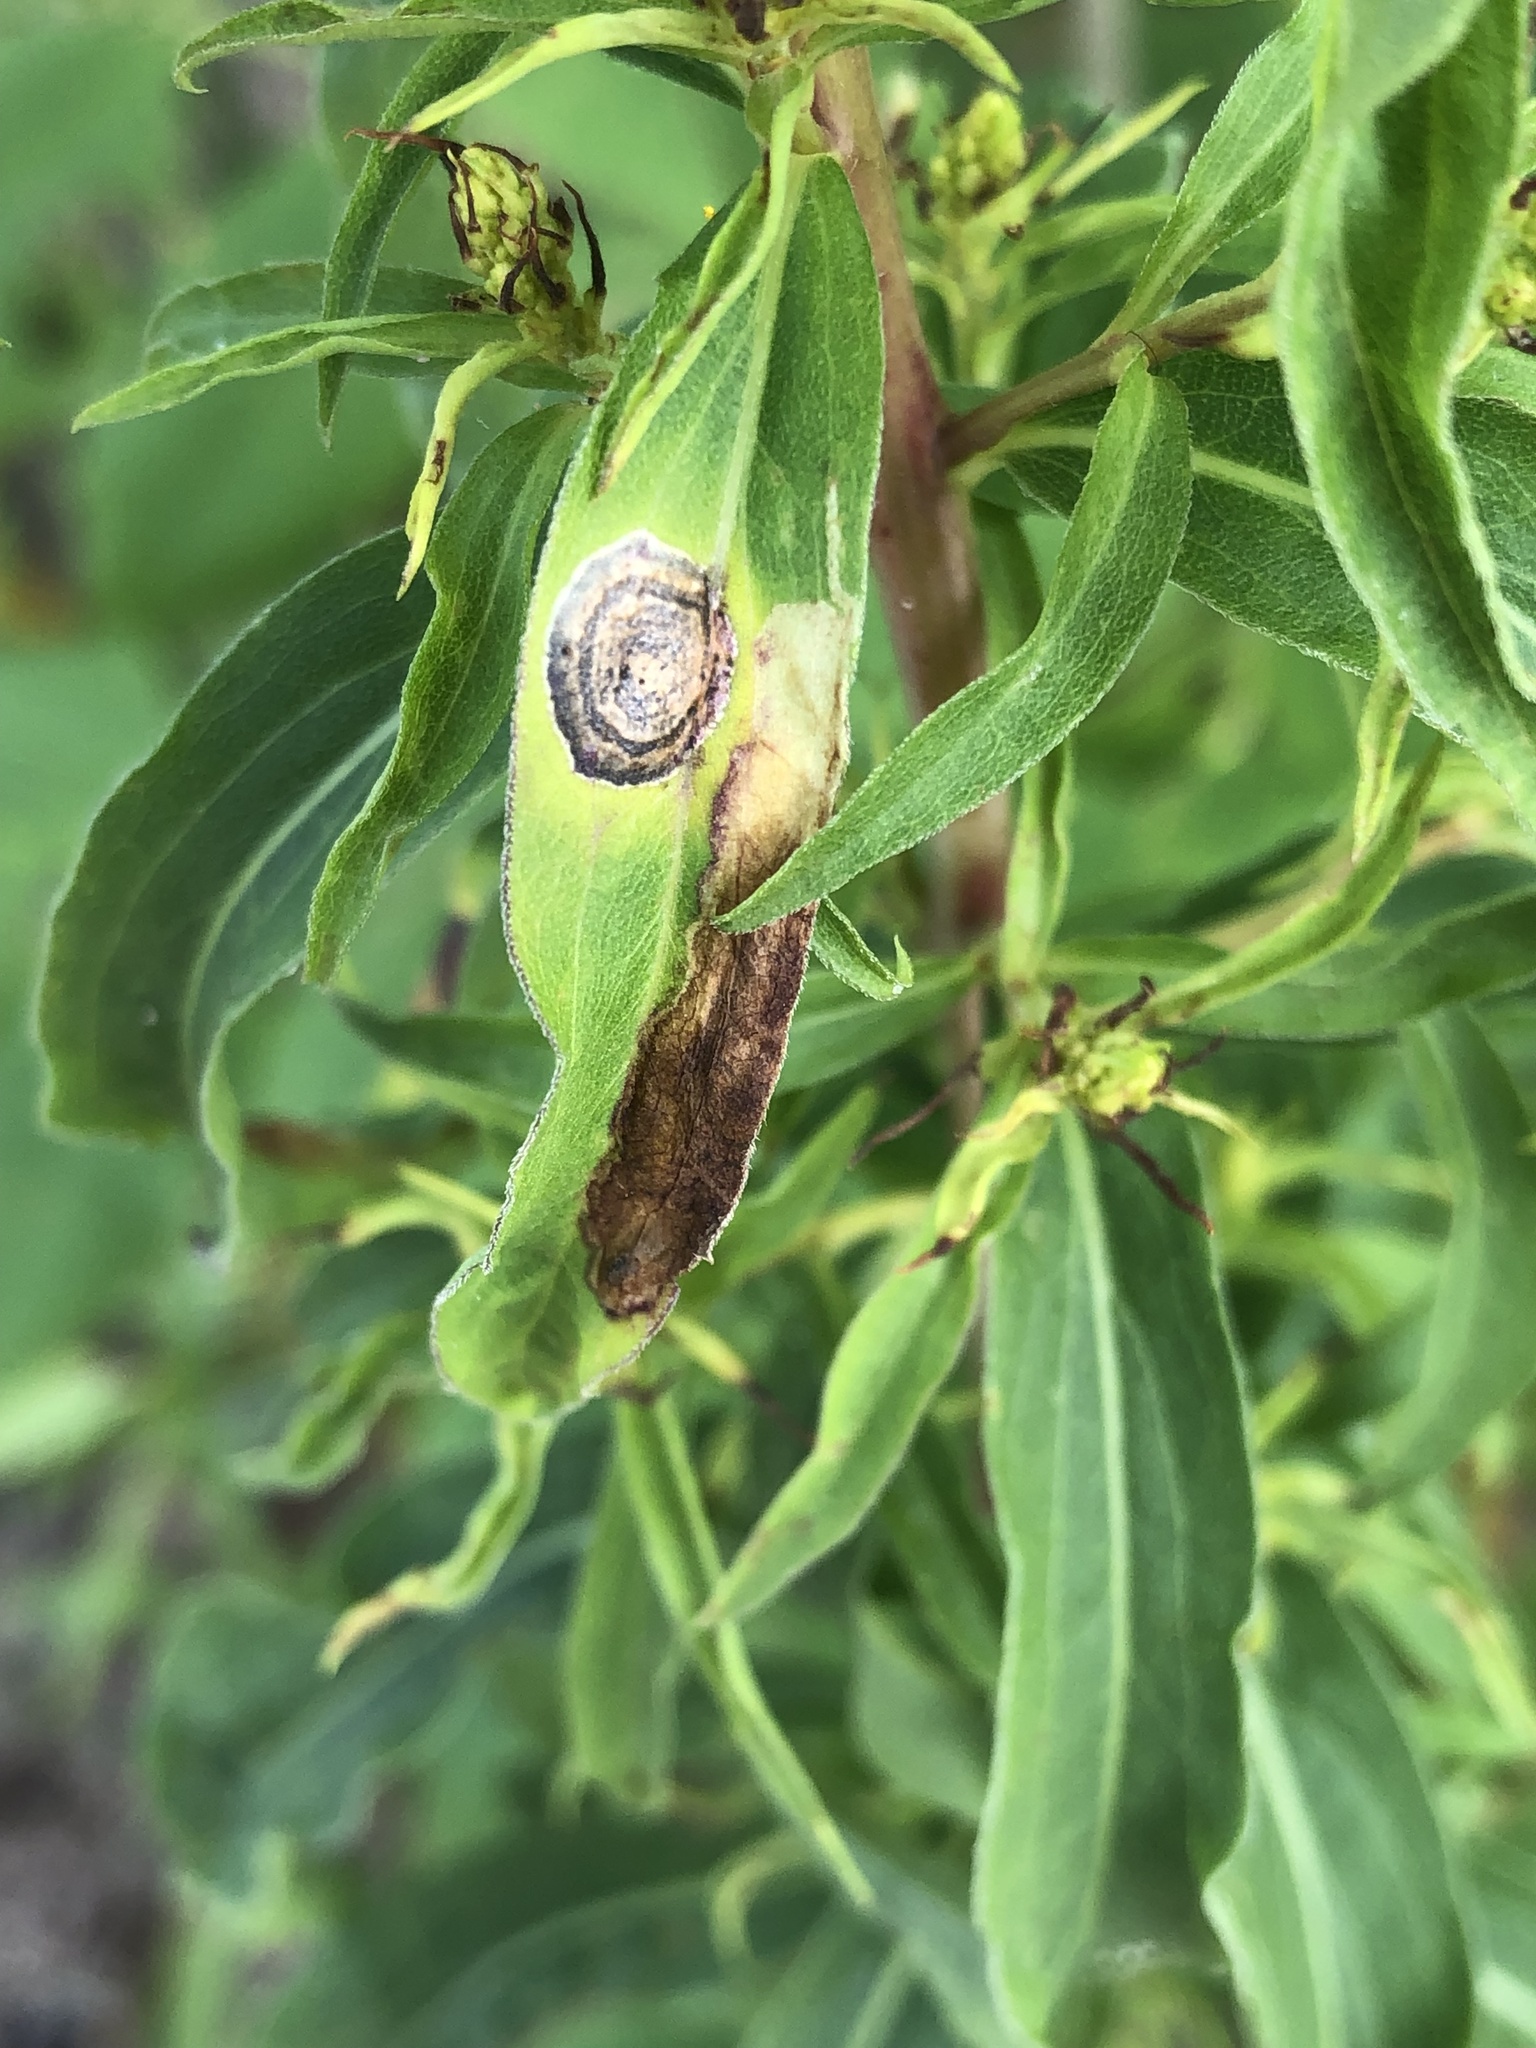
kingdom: Animalia
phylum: Arthropoda
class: Insecta
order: Diptera
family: Cecidomyiidae
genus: Asteromyia
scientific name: Asteromyia carbonifera
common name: Carbonifera goldenrod gall midge
